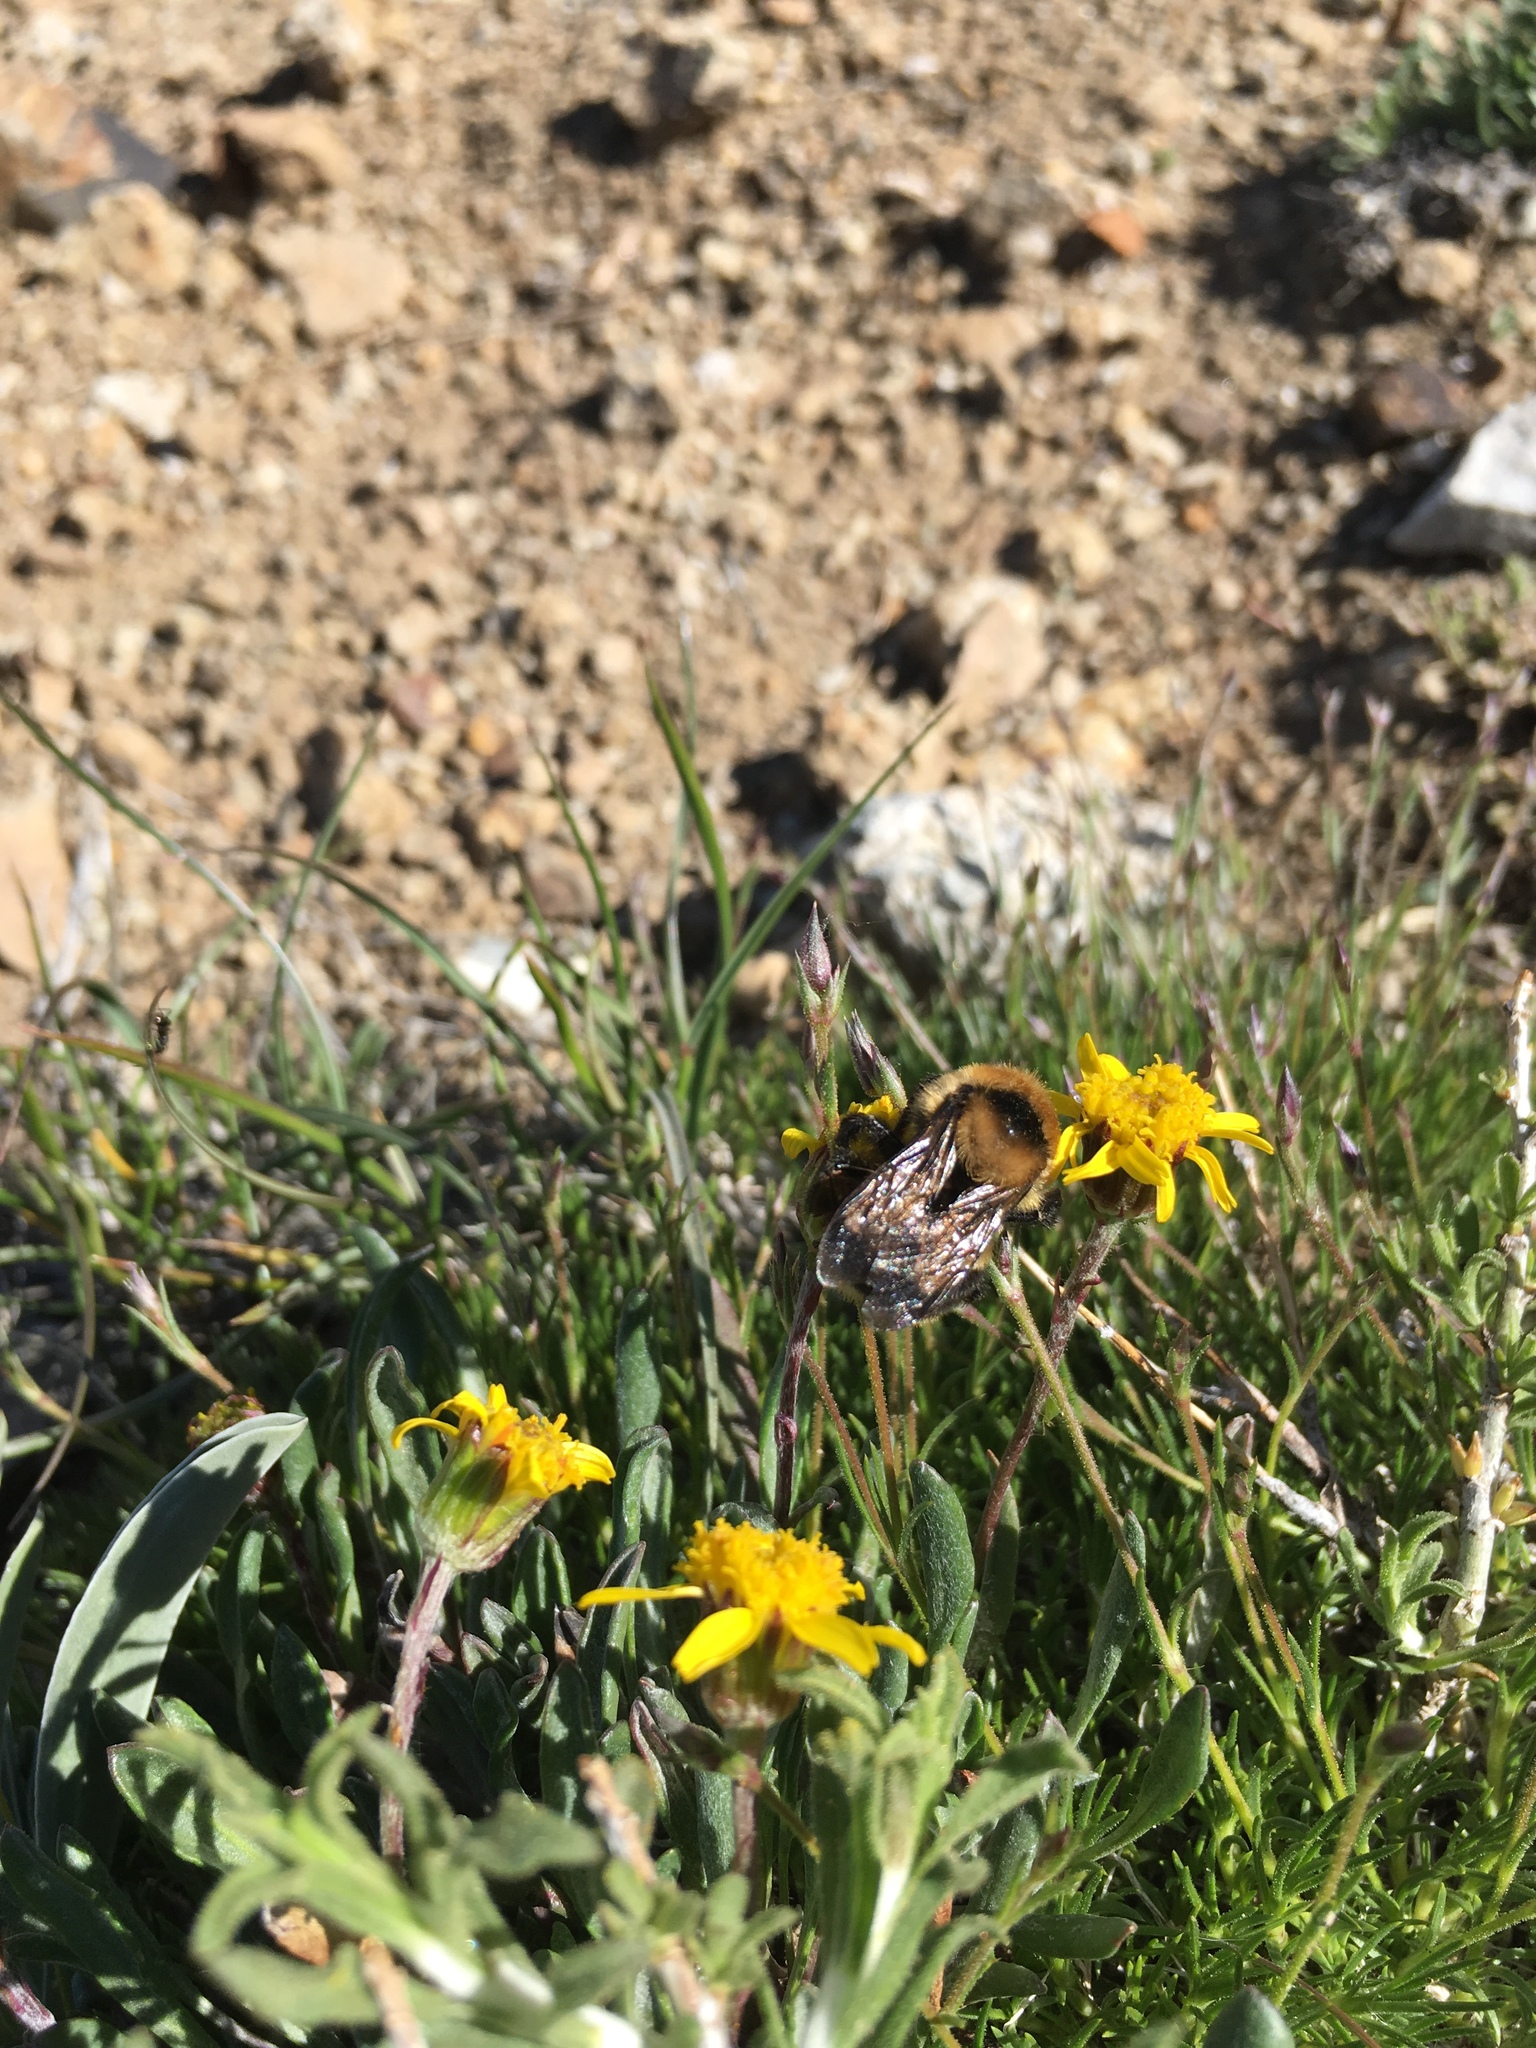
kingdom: Animalia
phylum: Arthropoda
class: Insecta
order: Hymenoptera
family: Apidae
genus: Bombus
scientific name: Bombus rufocinctus
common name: Red-belted bumble bee
